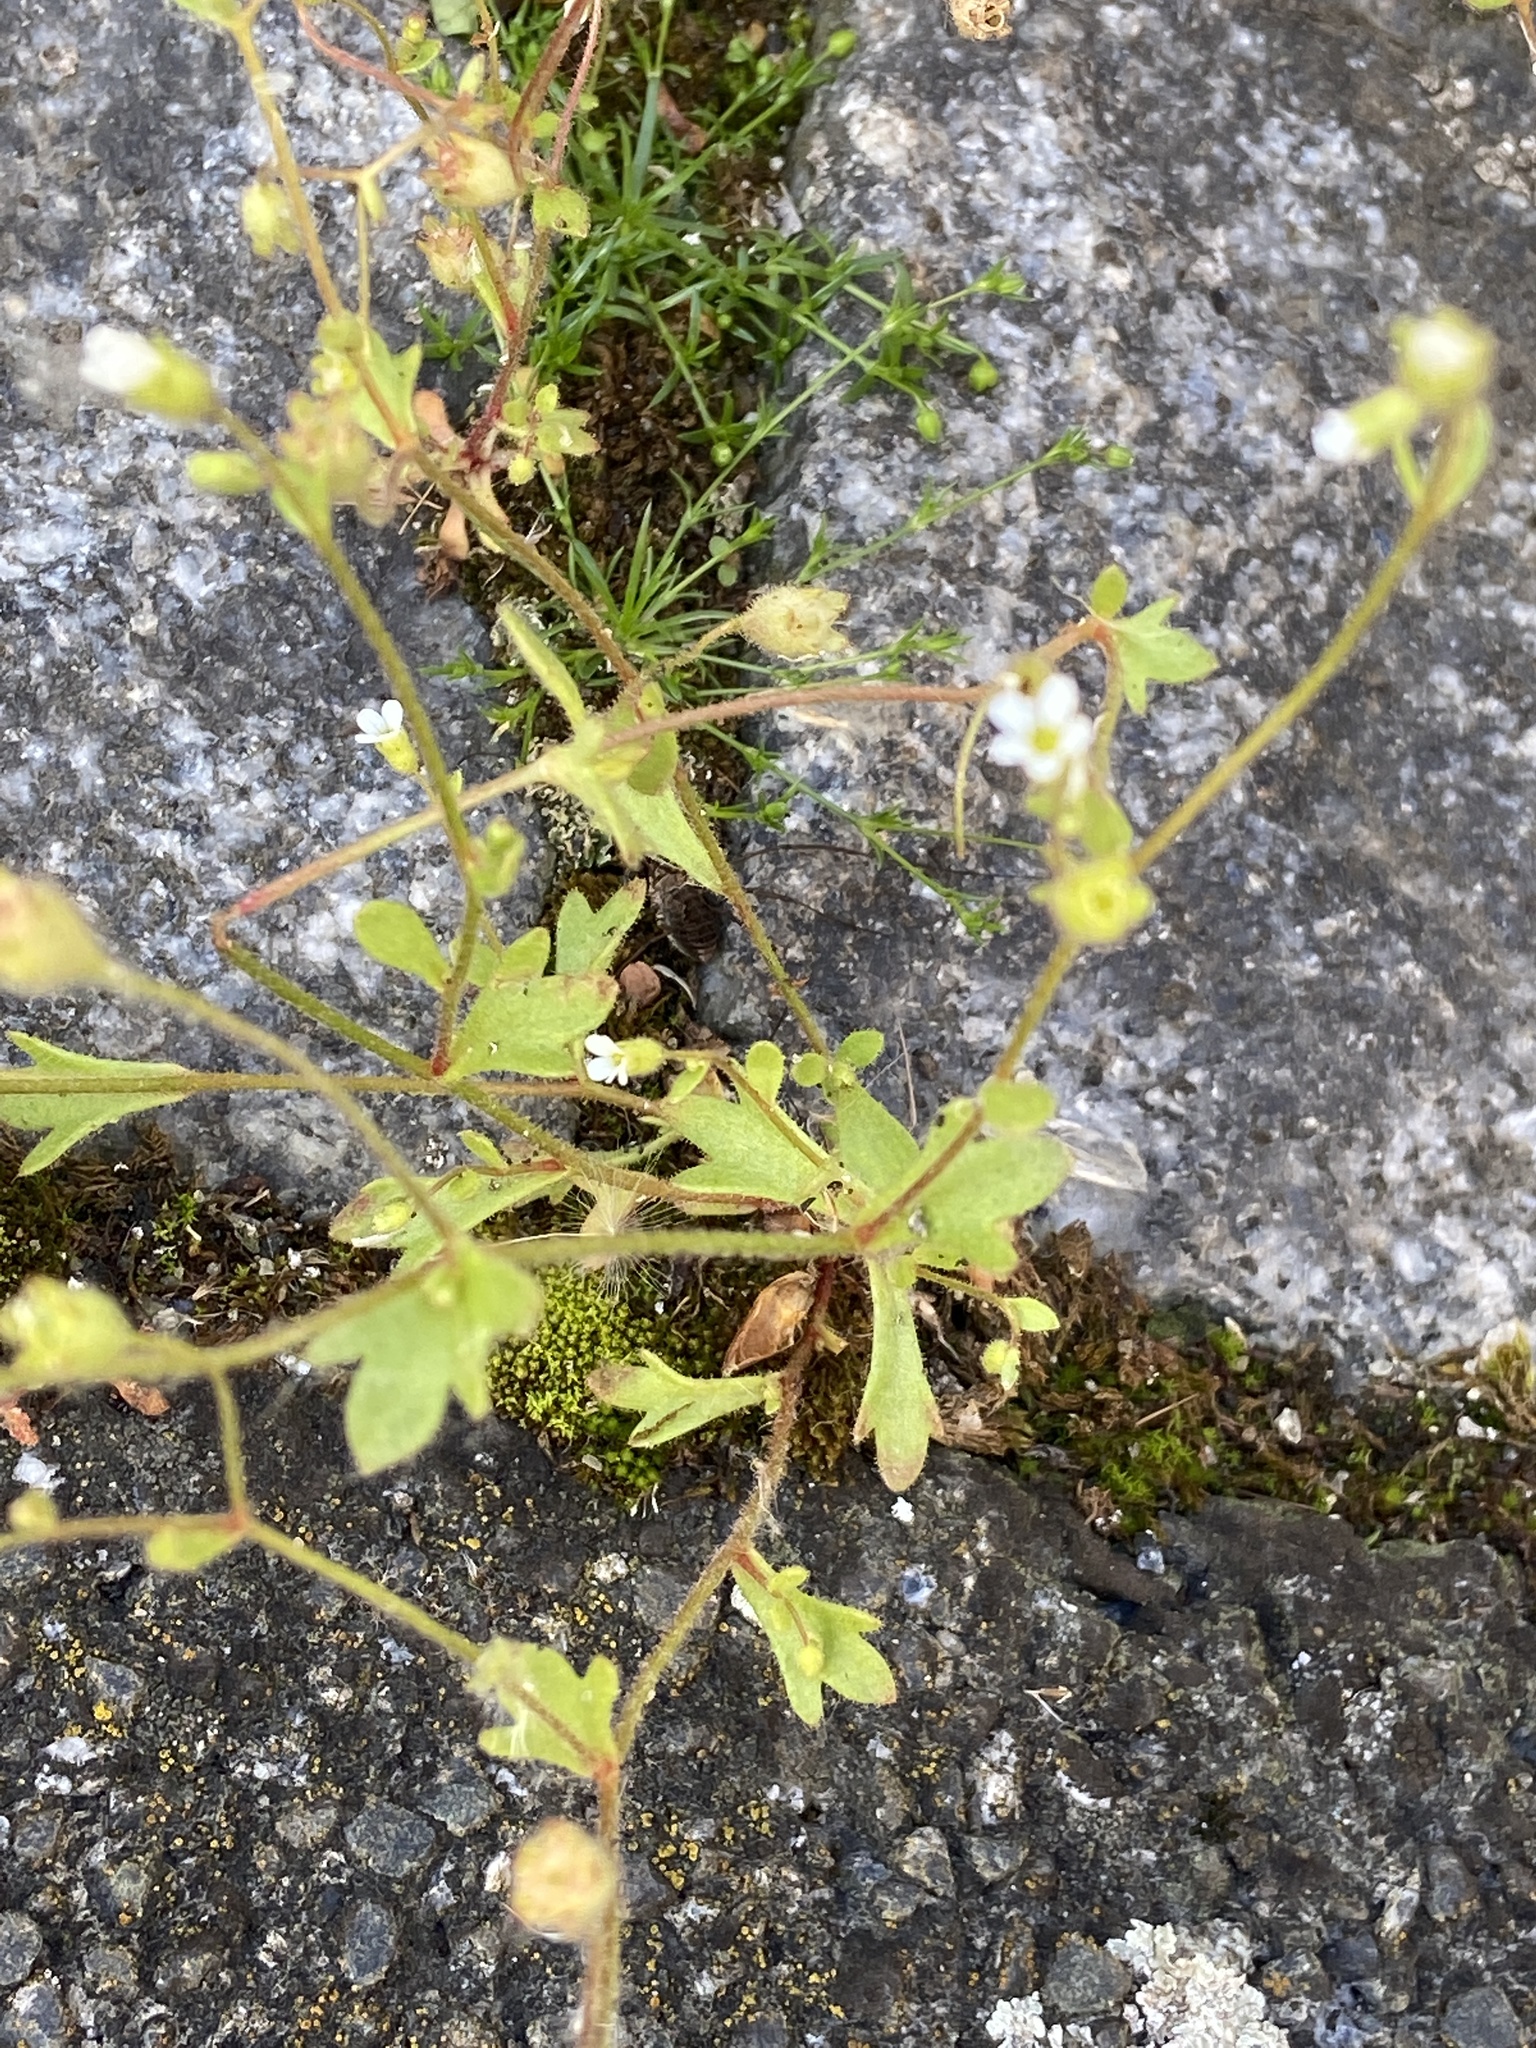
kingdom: Plantae
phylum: Tracheophyta
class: Magnoliopsida
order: Saxifragales
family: Saxifragaceae
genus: Saxifraga
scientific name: Saxifraga tridactylites
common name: Rue-leaved saxifrage
